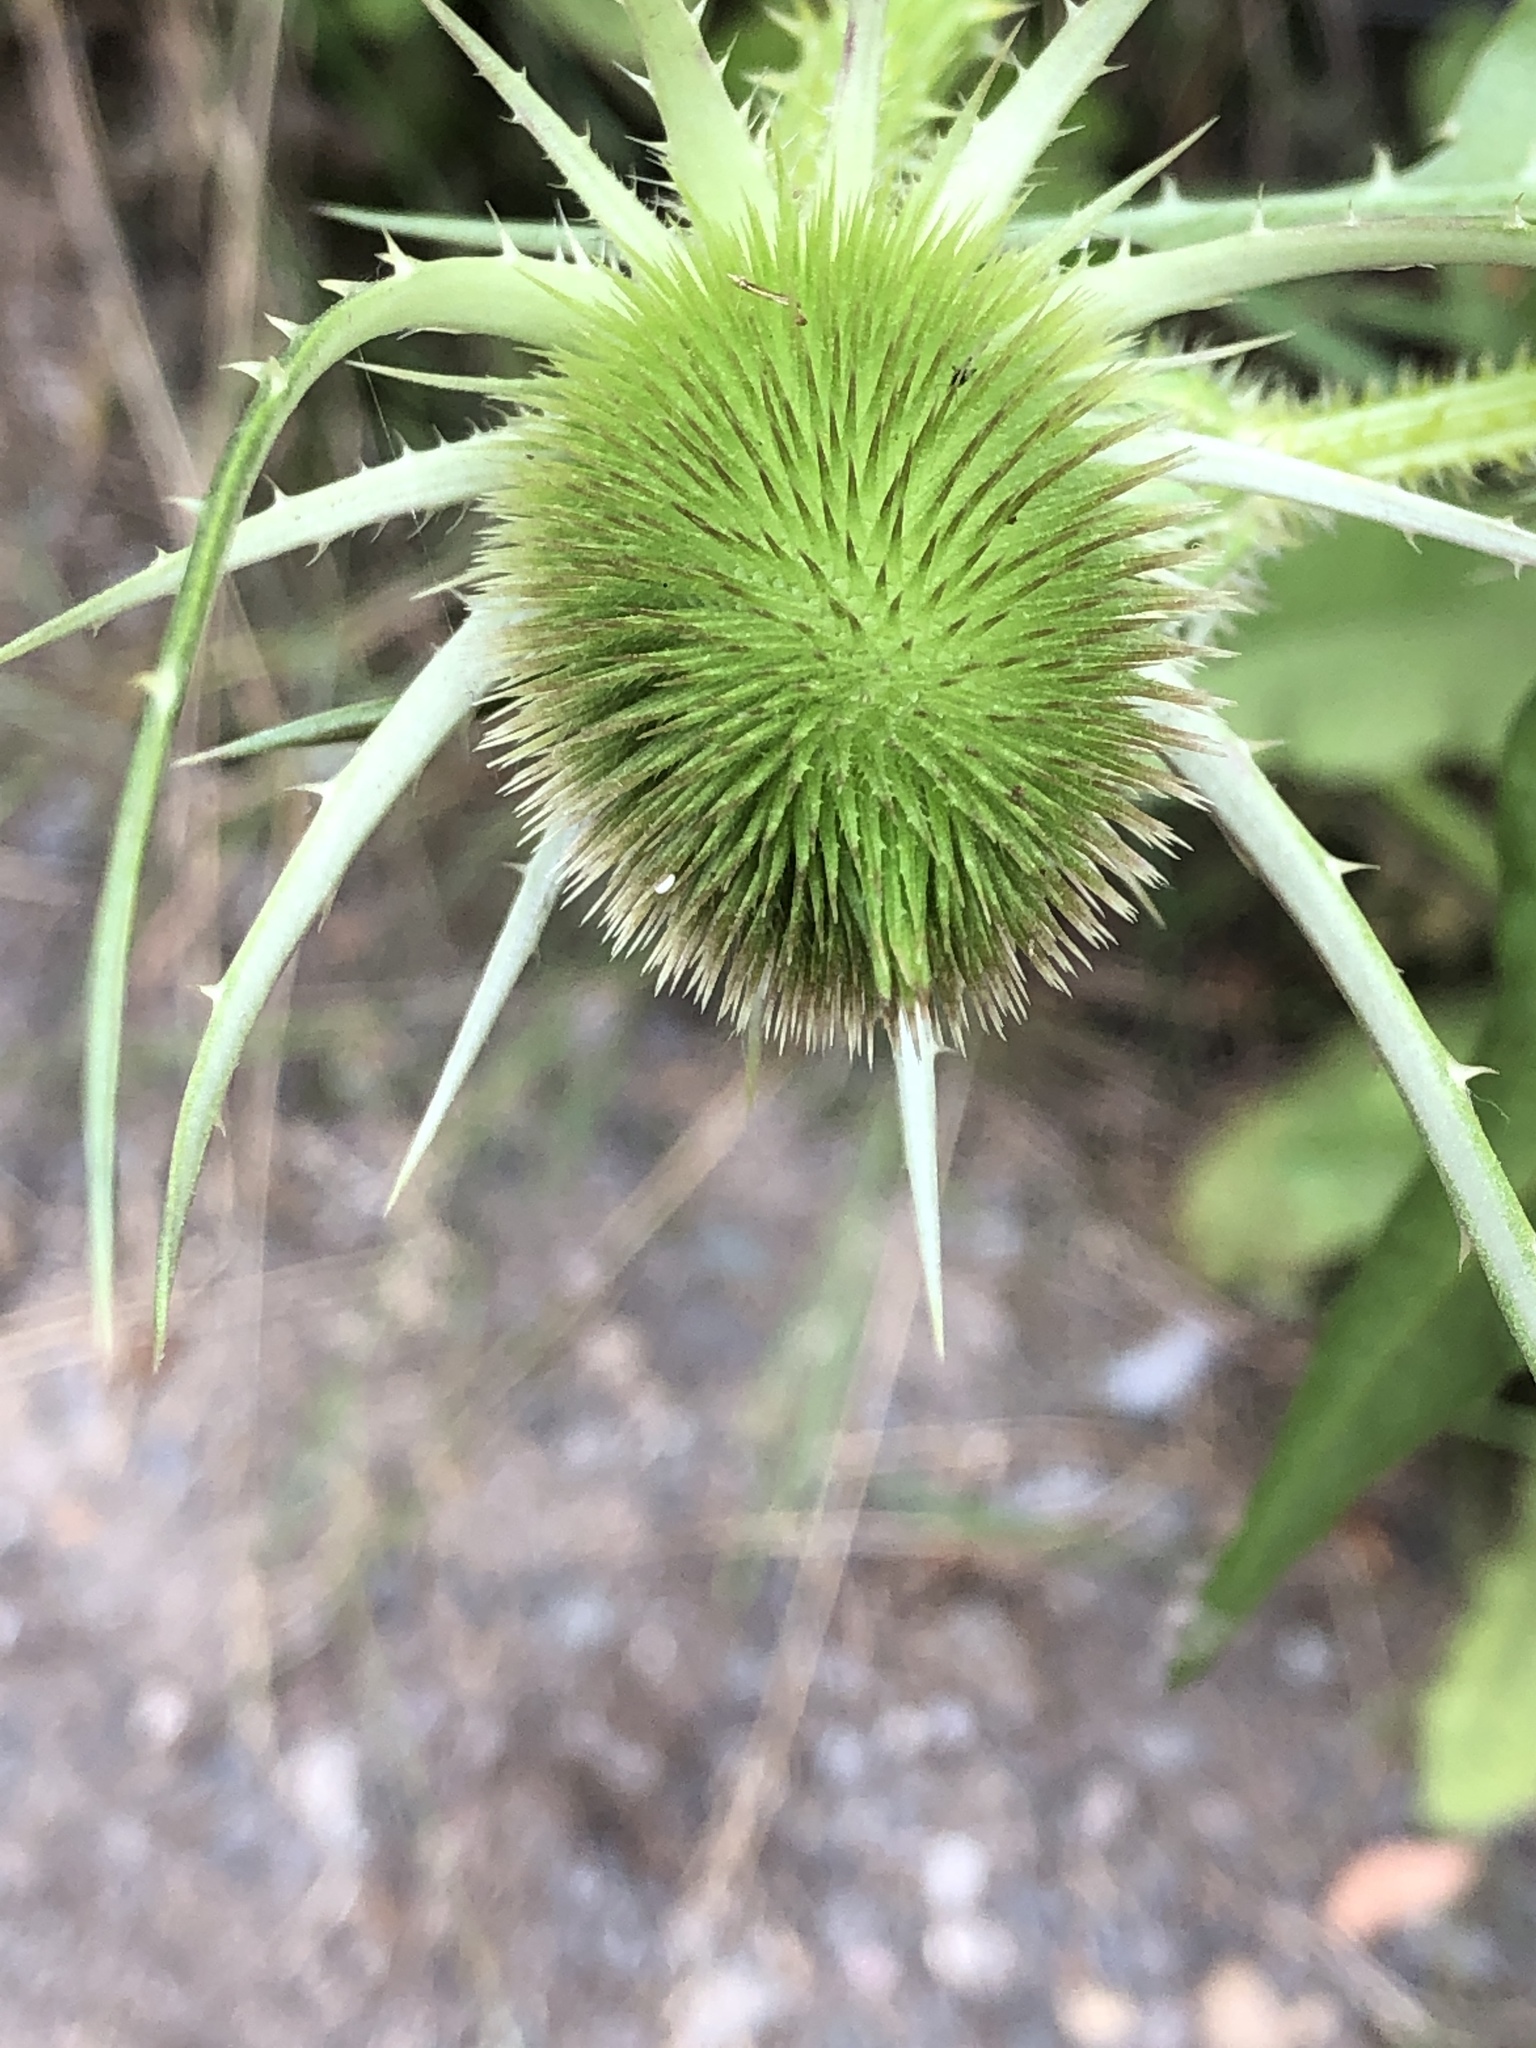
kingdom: Plantae
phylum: Tracheophyta
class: Magnoliopsida
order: Dipsacales
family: Caprifoliaceae
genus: Dipsacus
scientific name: Dipsacus fullonum
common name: Teasel
